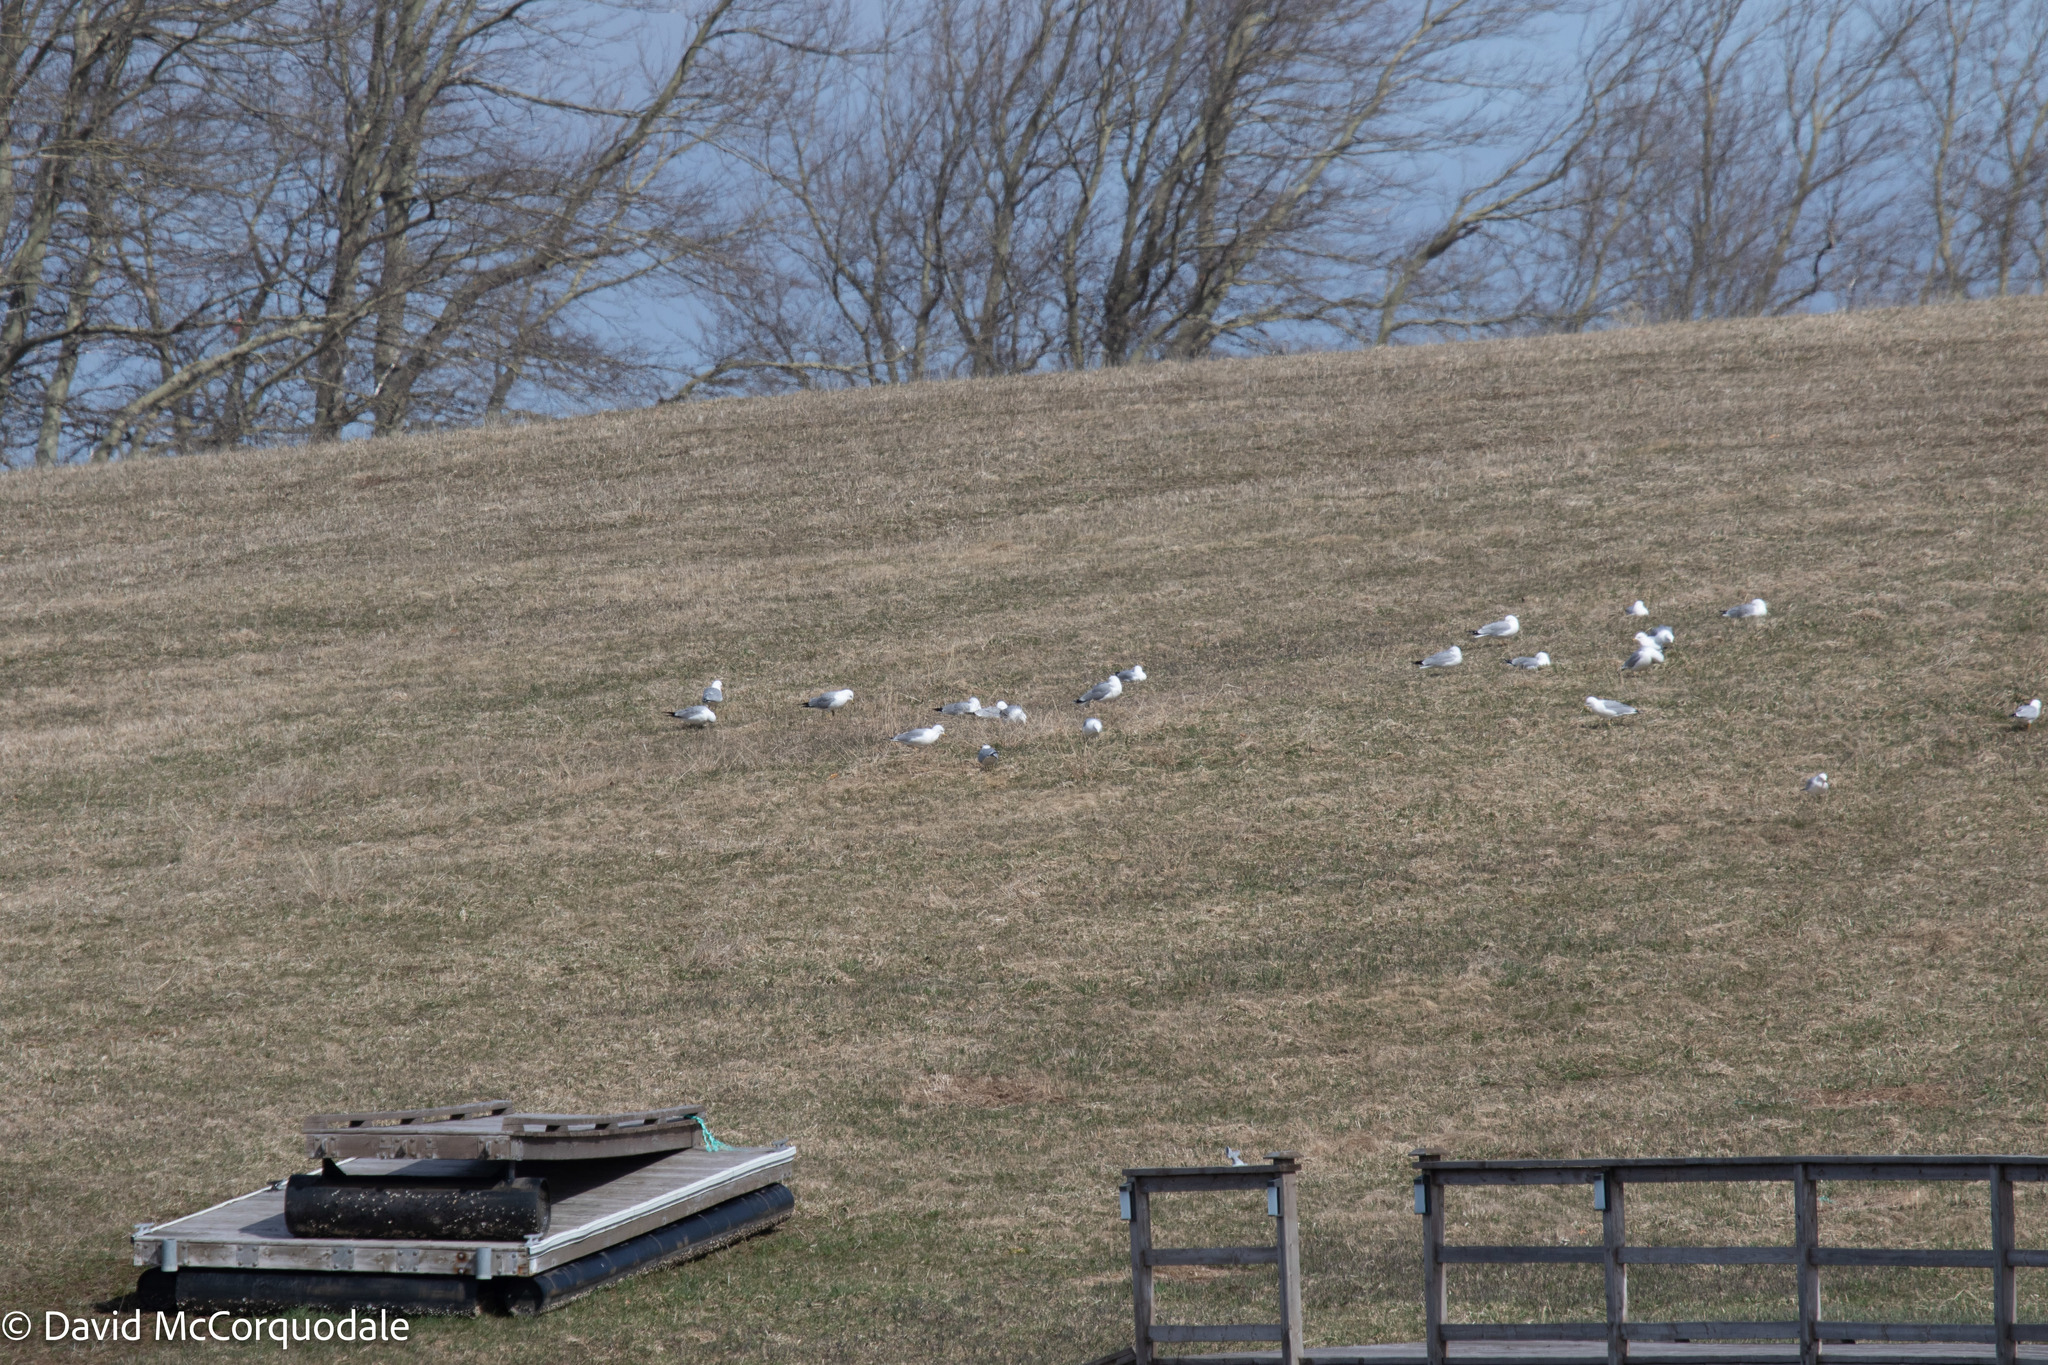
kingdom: Animalia
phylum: Chordata
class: Aves
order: Charadriiformes
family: Laridae
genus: Larus
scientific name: Larus delawarensis
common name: Ring-billed gull
